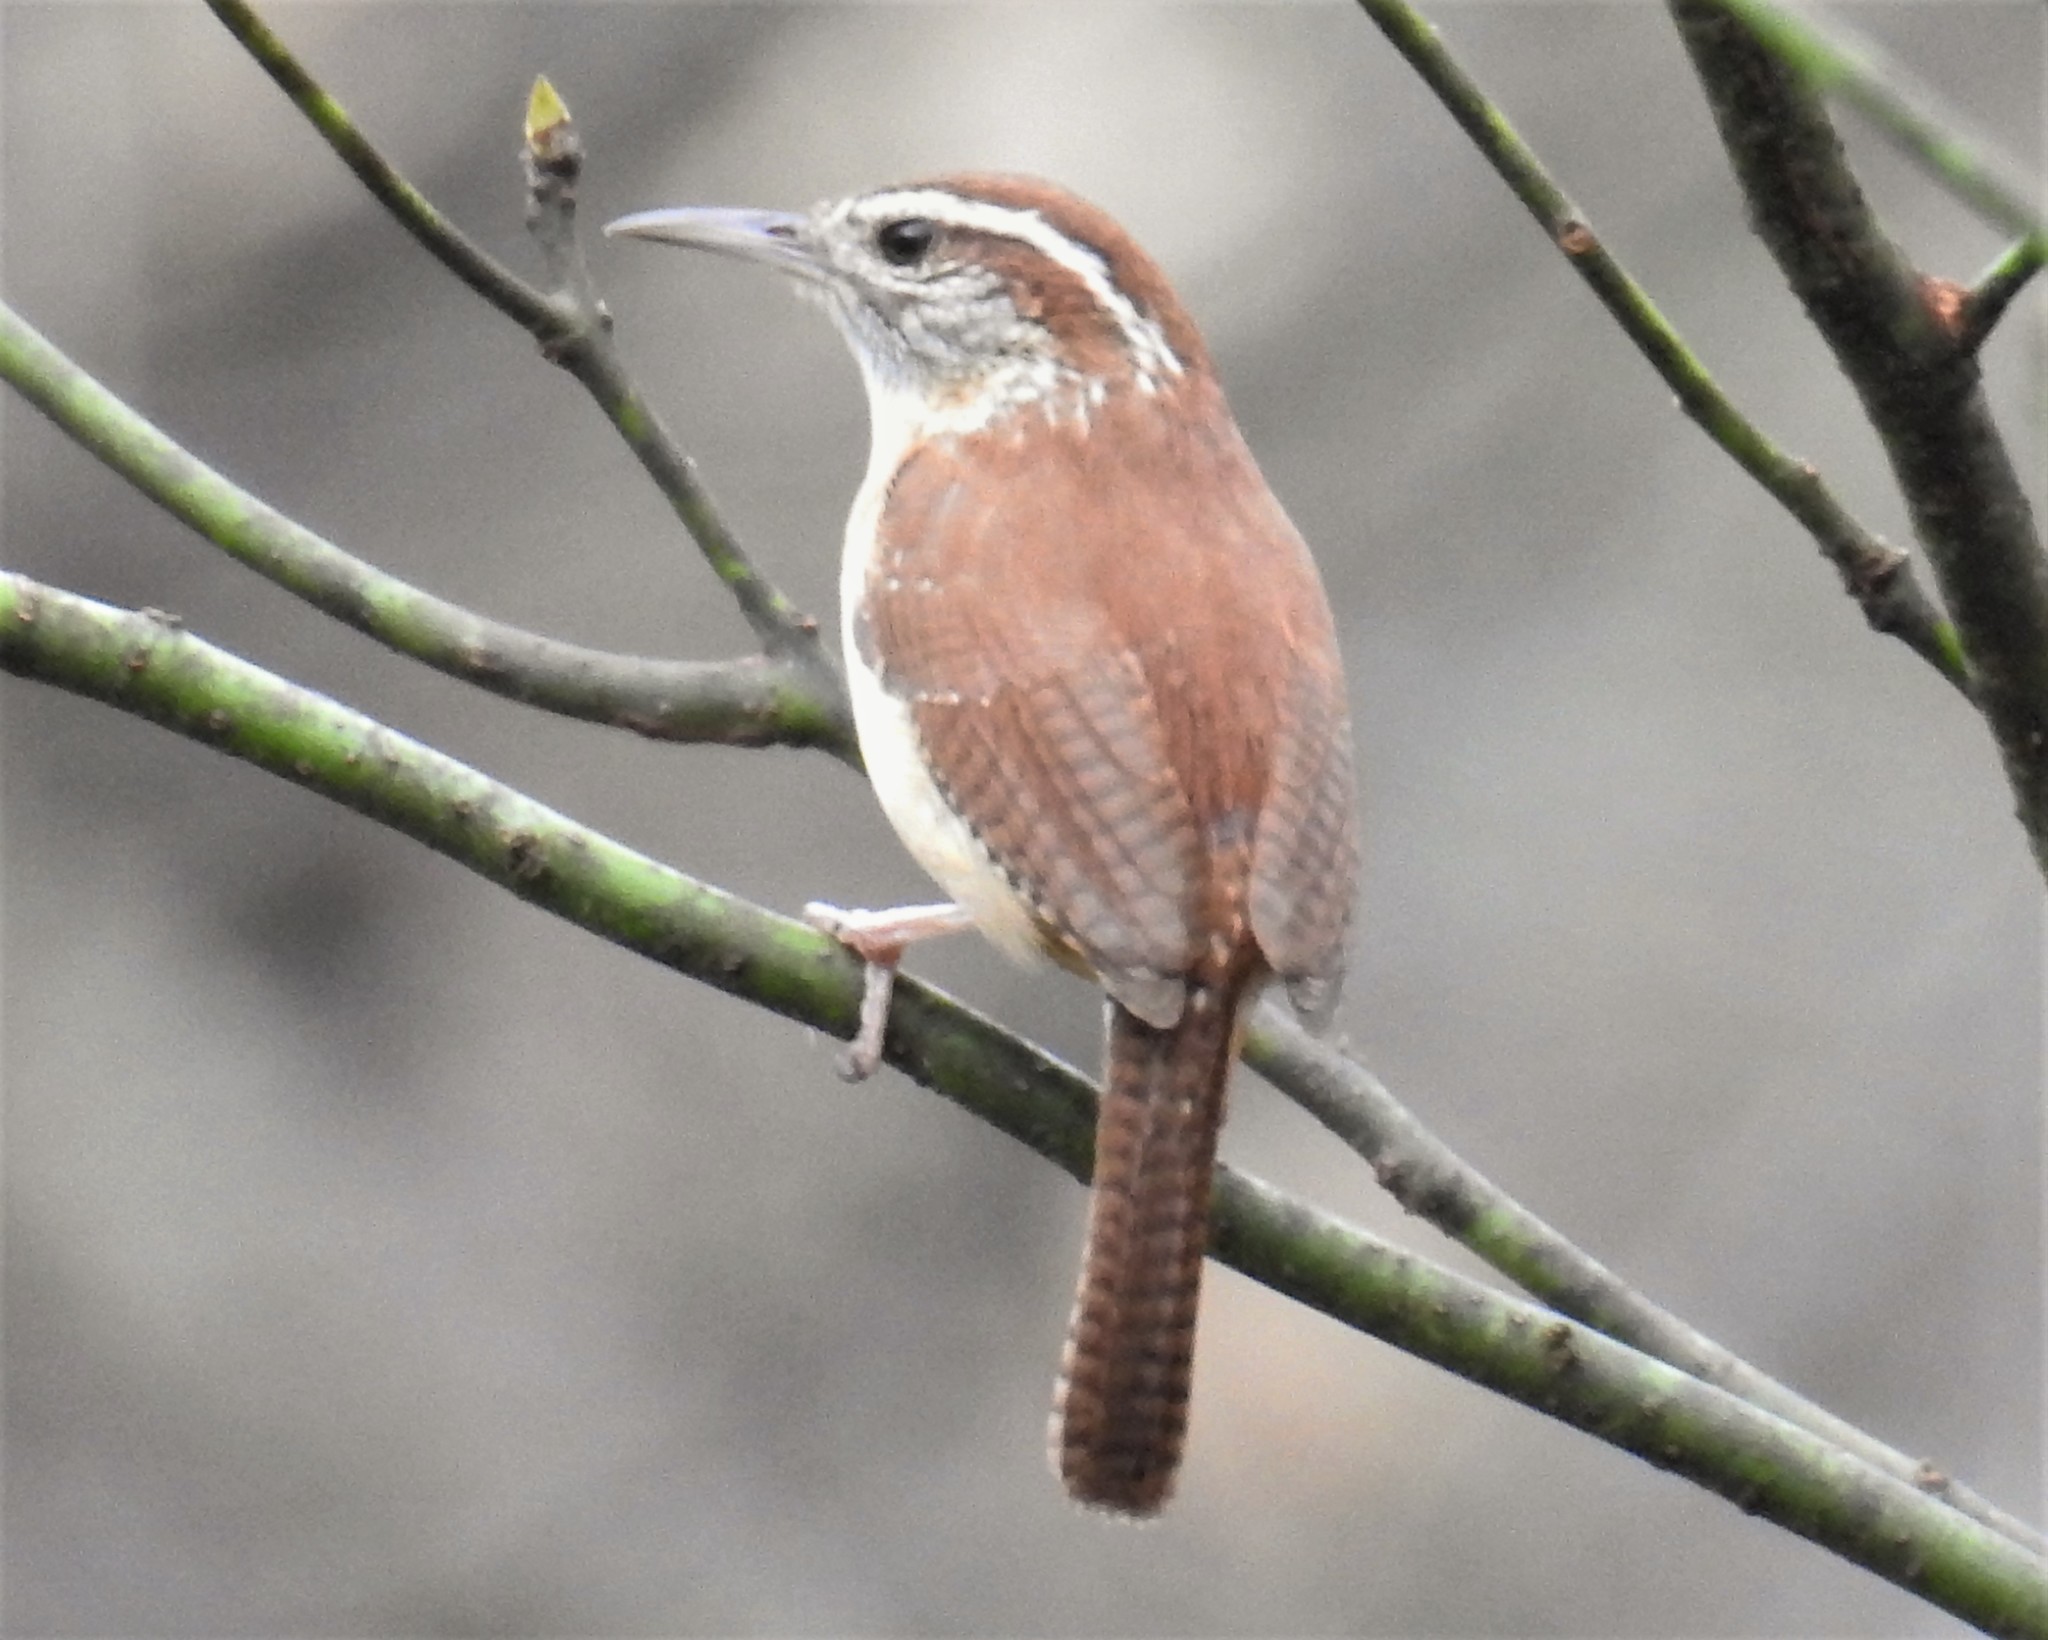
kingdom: Animalia
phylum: Chordata
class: Aves
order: Passeriformes
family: Troglodytidae
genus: Thryothorus
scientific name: Thryothorus ludovicianus
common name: Carolina wren
